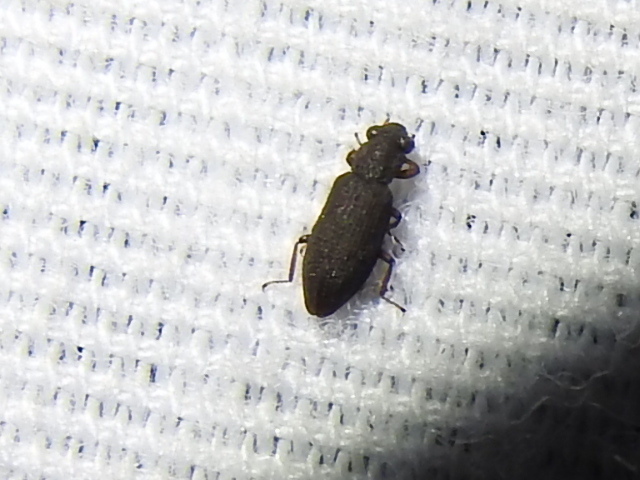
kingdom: Animalia
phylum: Arthropoda
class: Insecta
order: Coleoptera
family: Hydrochidae
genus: Hydrochus
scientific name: Hydrochus
